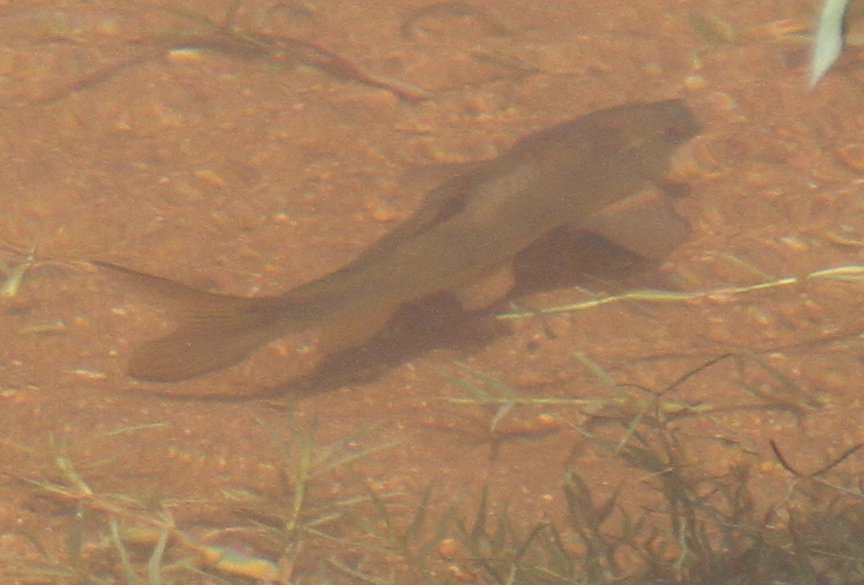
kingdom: Animalia
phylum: Chordata
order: Cypriniformes
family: Cyprinidae
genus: Labeo
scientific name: Labeo cylindricus
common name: Redeye labeo
